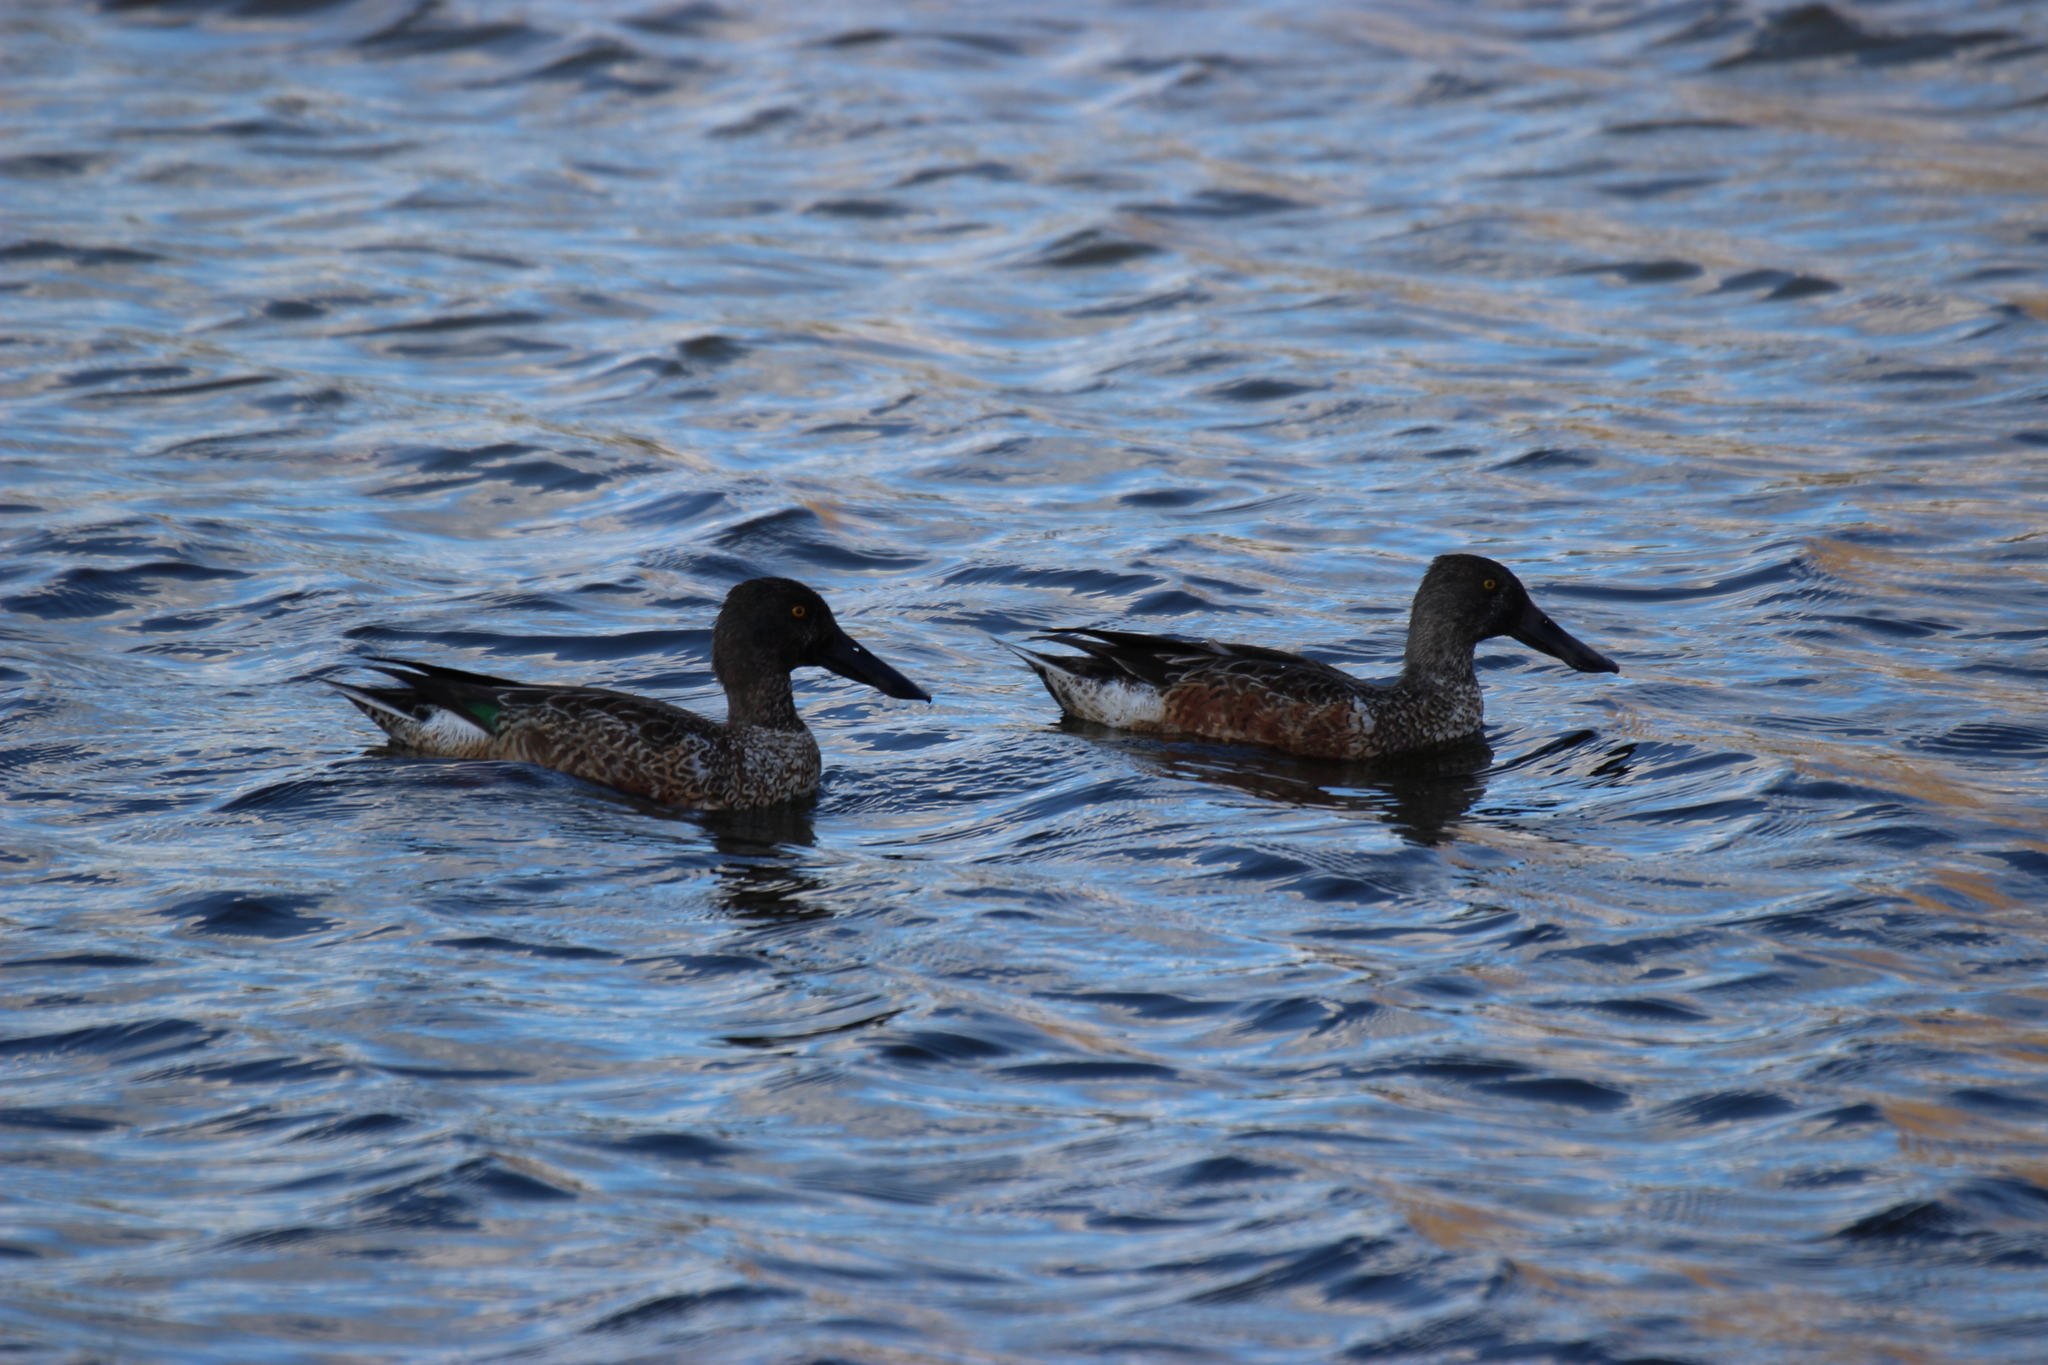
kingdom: Animalia
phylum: Chordata
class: Aves
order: Anseriformes
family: Anatidae
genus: Spatula
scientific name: Spatula clypeata
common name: Northern shoveler
